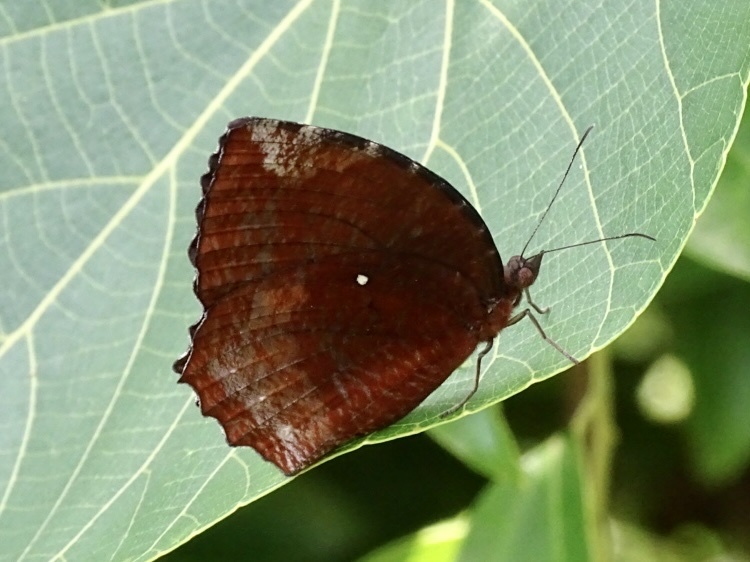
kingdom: Animalia
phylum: Arthropoda
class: Insecta
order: Lepidoptera
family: Nymphalidae
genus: Elymnias
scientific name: Elymnias hypermnestra
